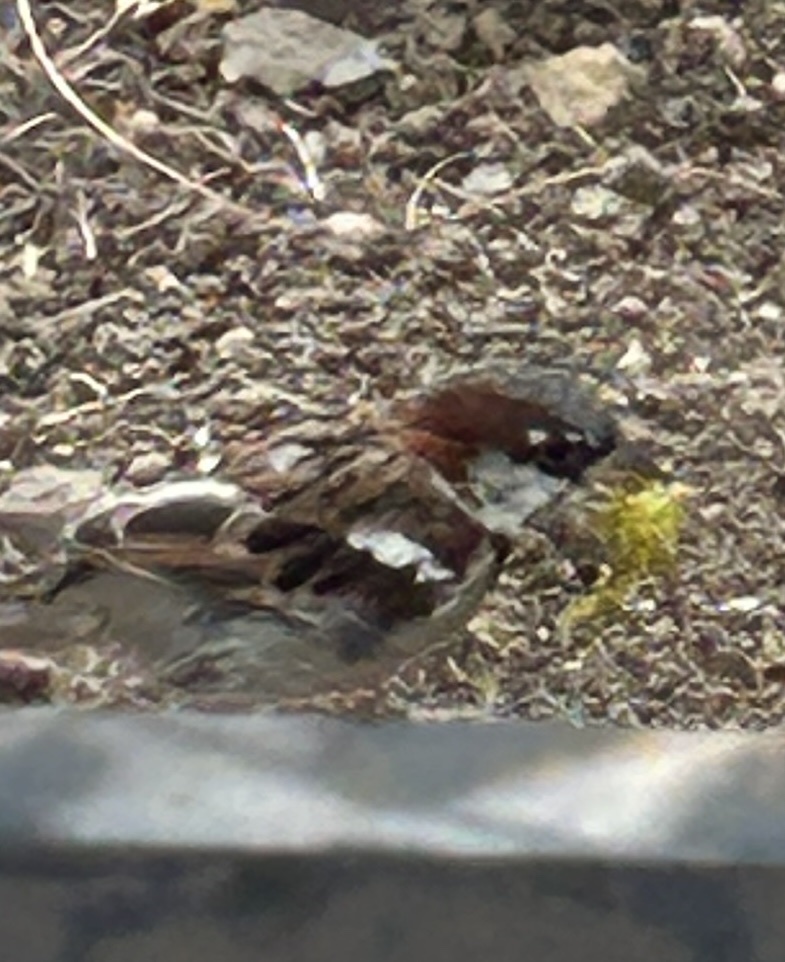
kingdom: Animalia
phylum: Chordata
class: Aves
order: Passeriformes
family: Passeridae
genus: Passer
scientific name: Passer domesticus
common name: House sparrow
